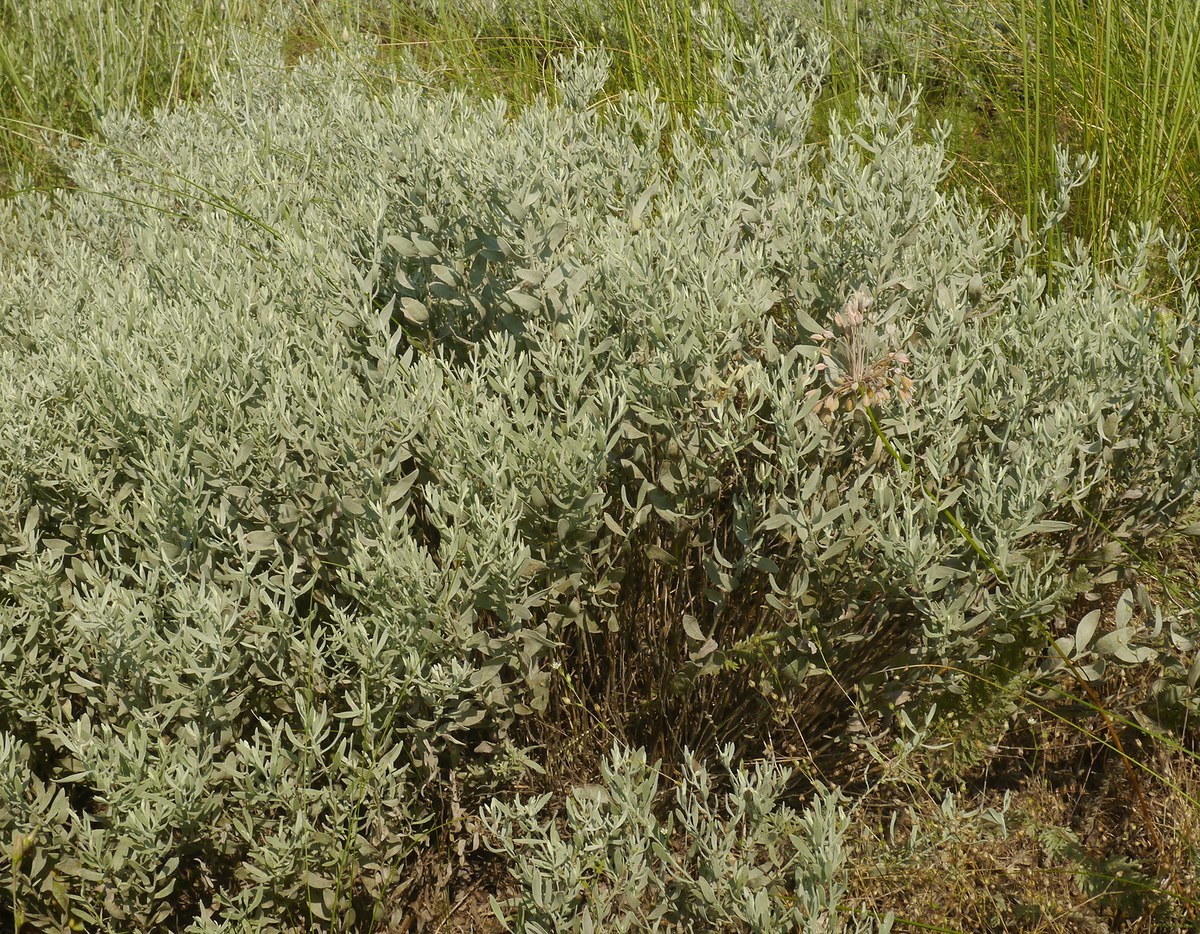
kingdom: Plantae
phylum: Tracheophyta
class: Magnoliopsida
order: Asterales
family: Asteraceae
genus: Galatella
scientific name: Galatella villosa
